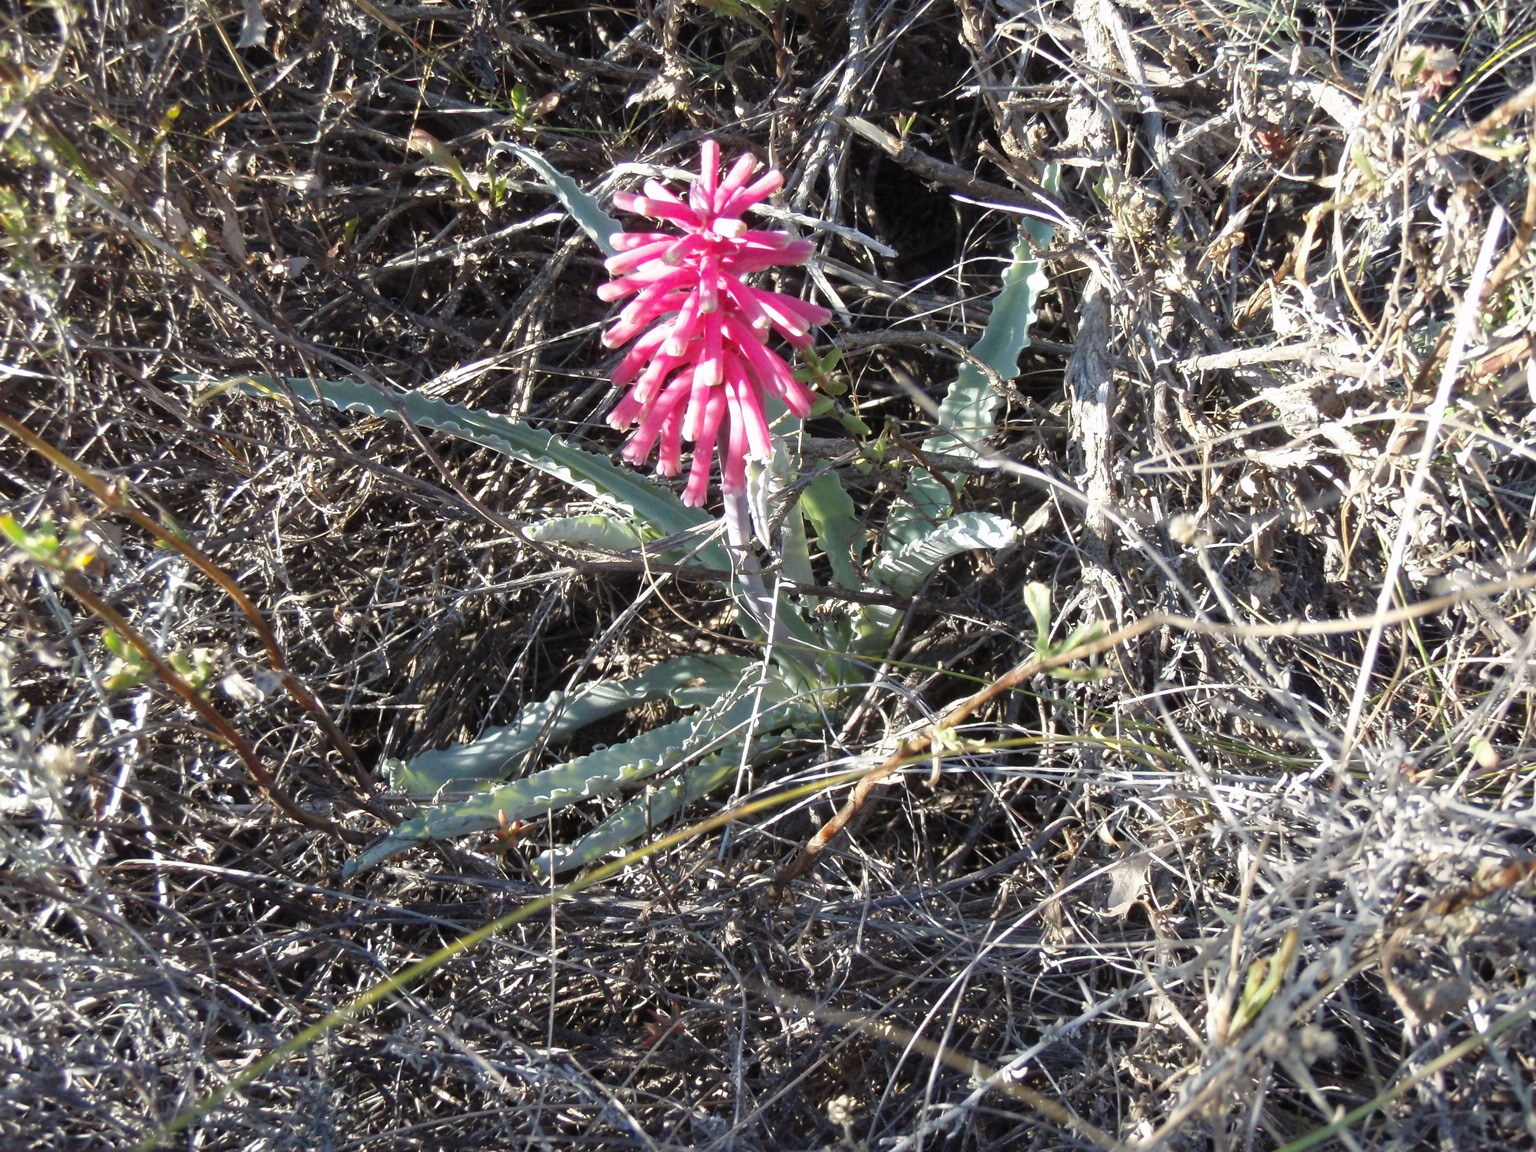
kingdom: Plantae
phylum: Tracheophyta
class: Liliopsida
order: Asparagales
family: Asparagaceae
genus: Veltheimia
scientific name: Veltheimia capensis
